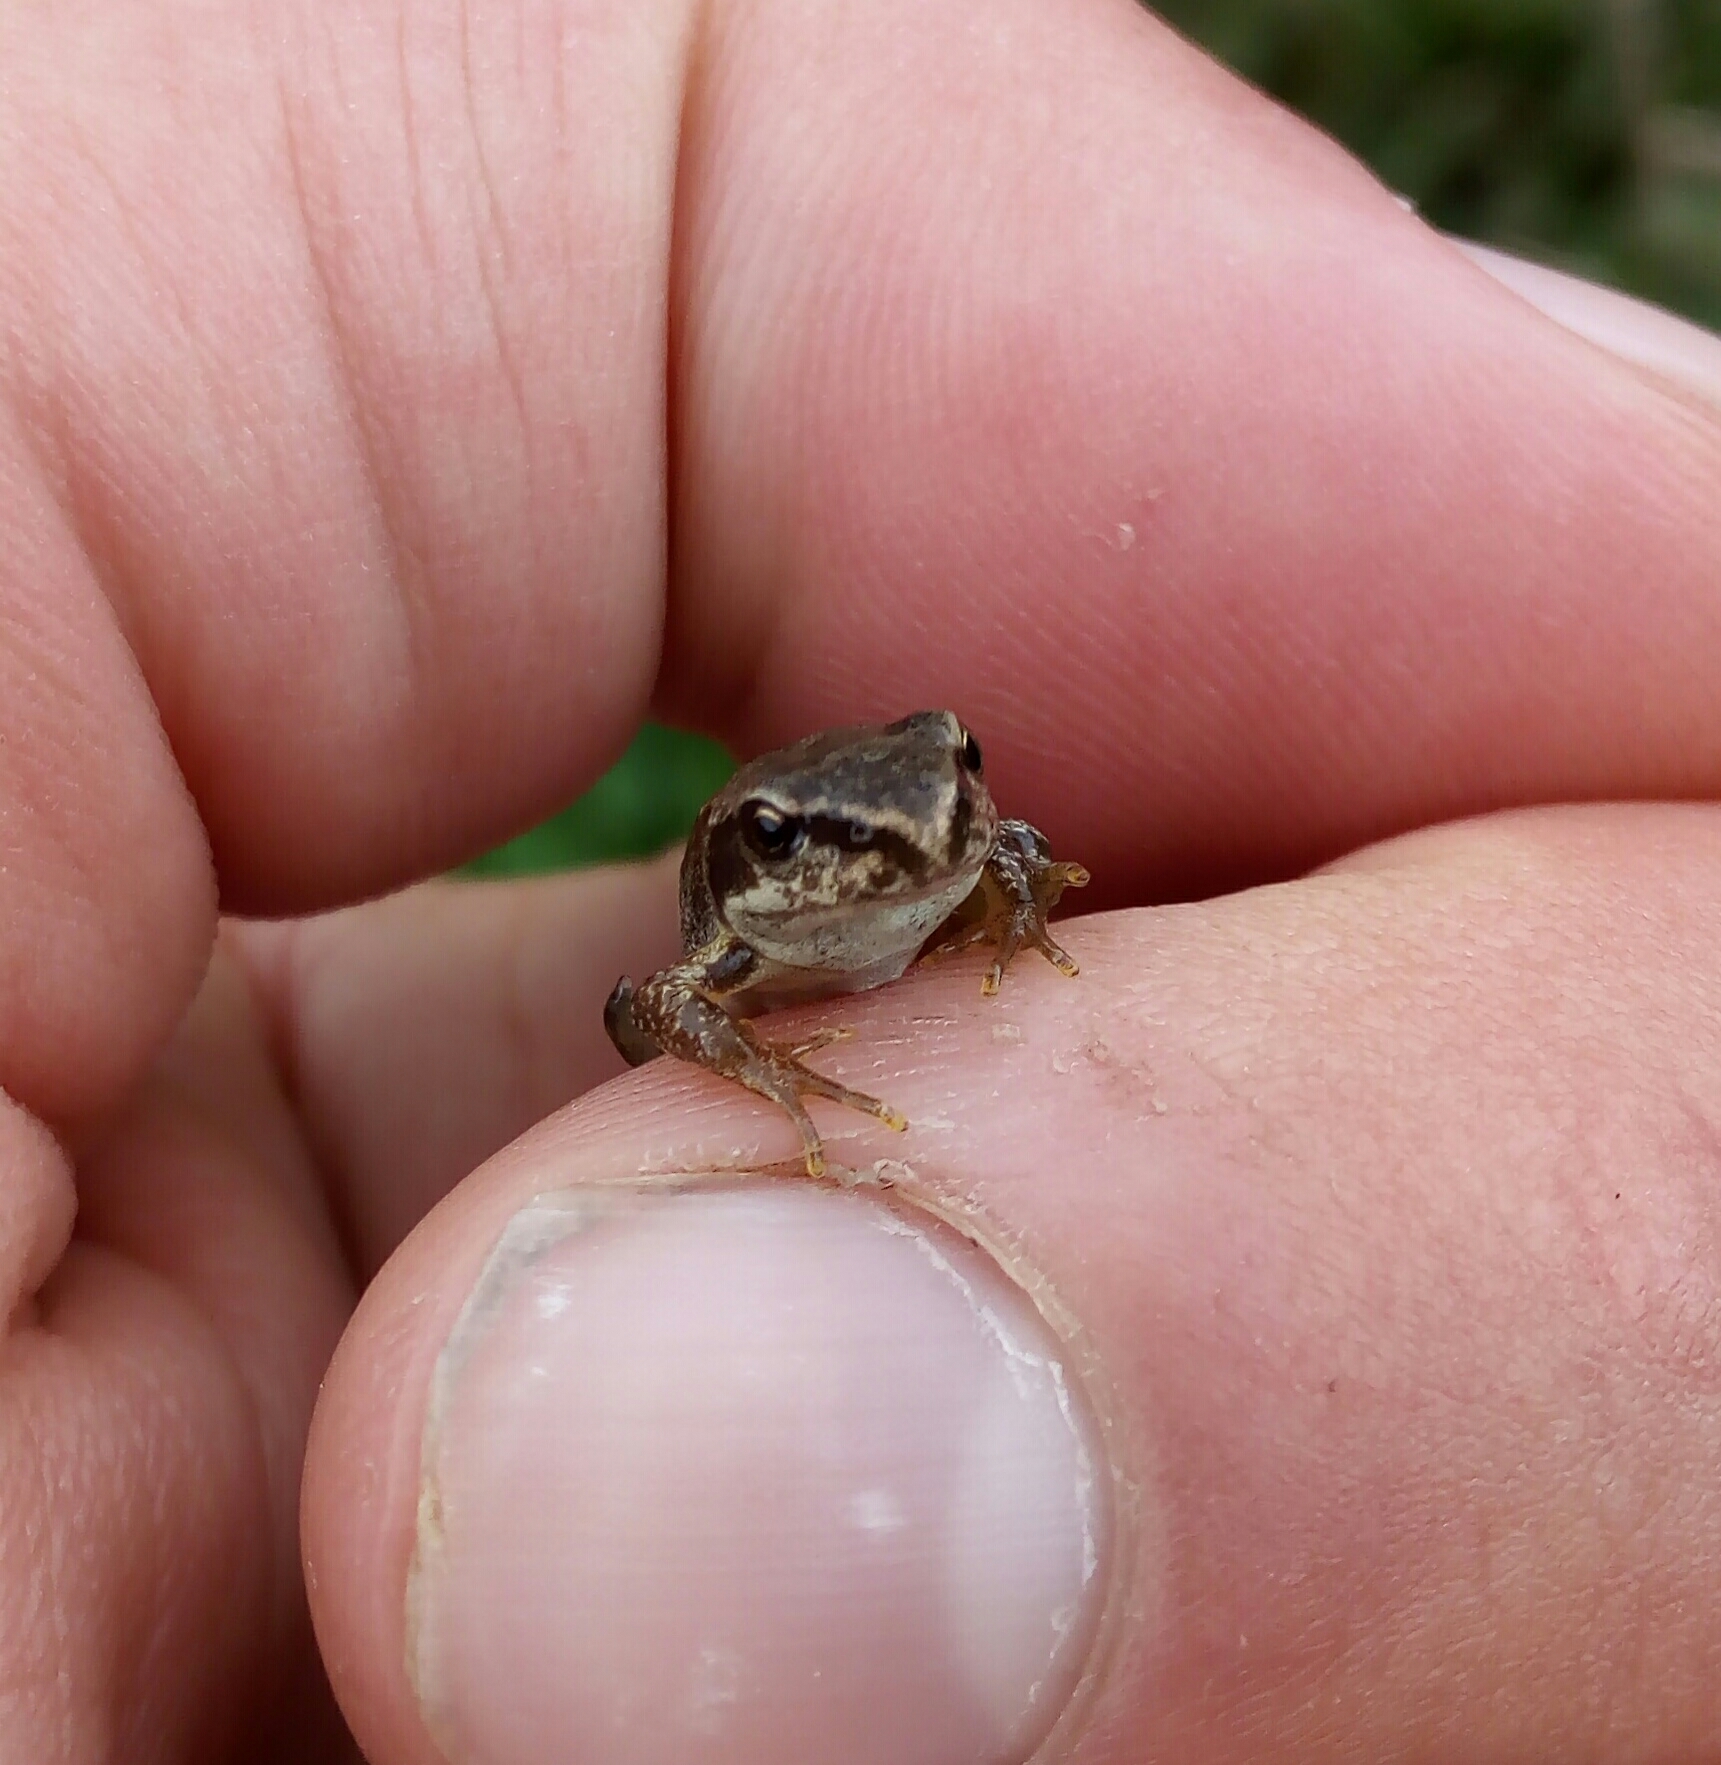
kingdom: Animalia
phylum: Chordata
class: Amphibia
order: Anura
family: Ranidae
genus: Rana
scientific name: Rana temporaria
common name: Common frog
